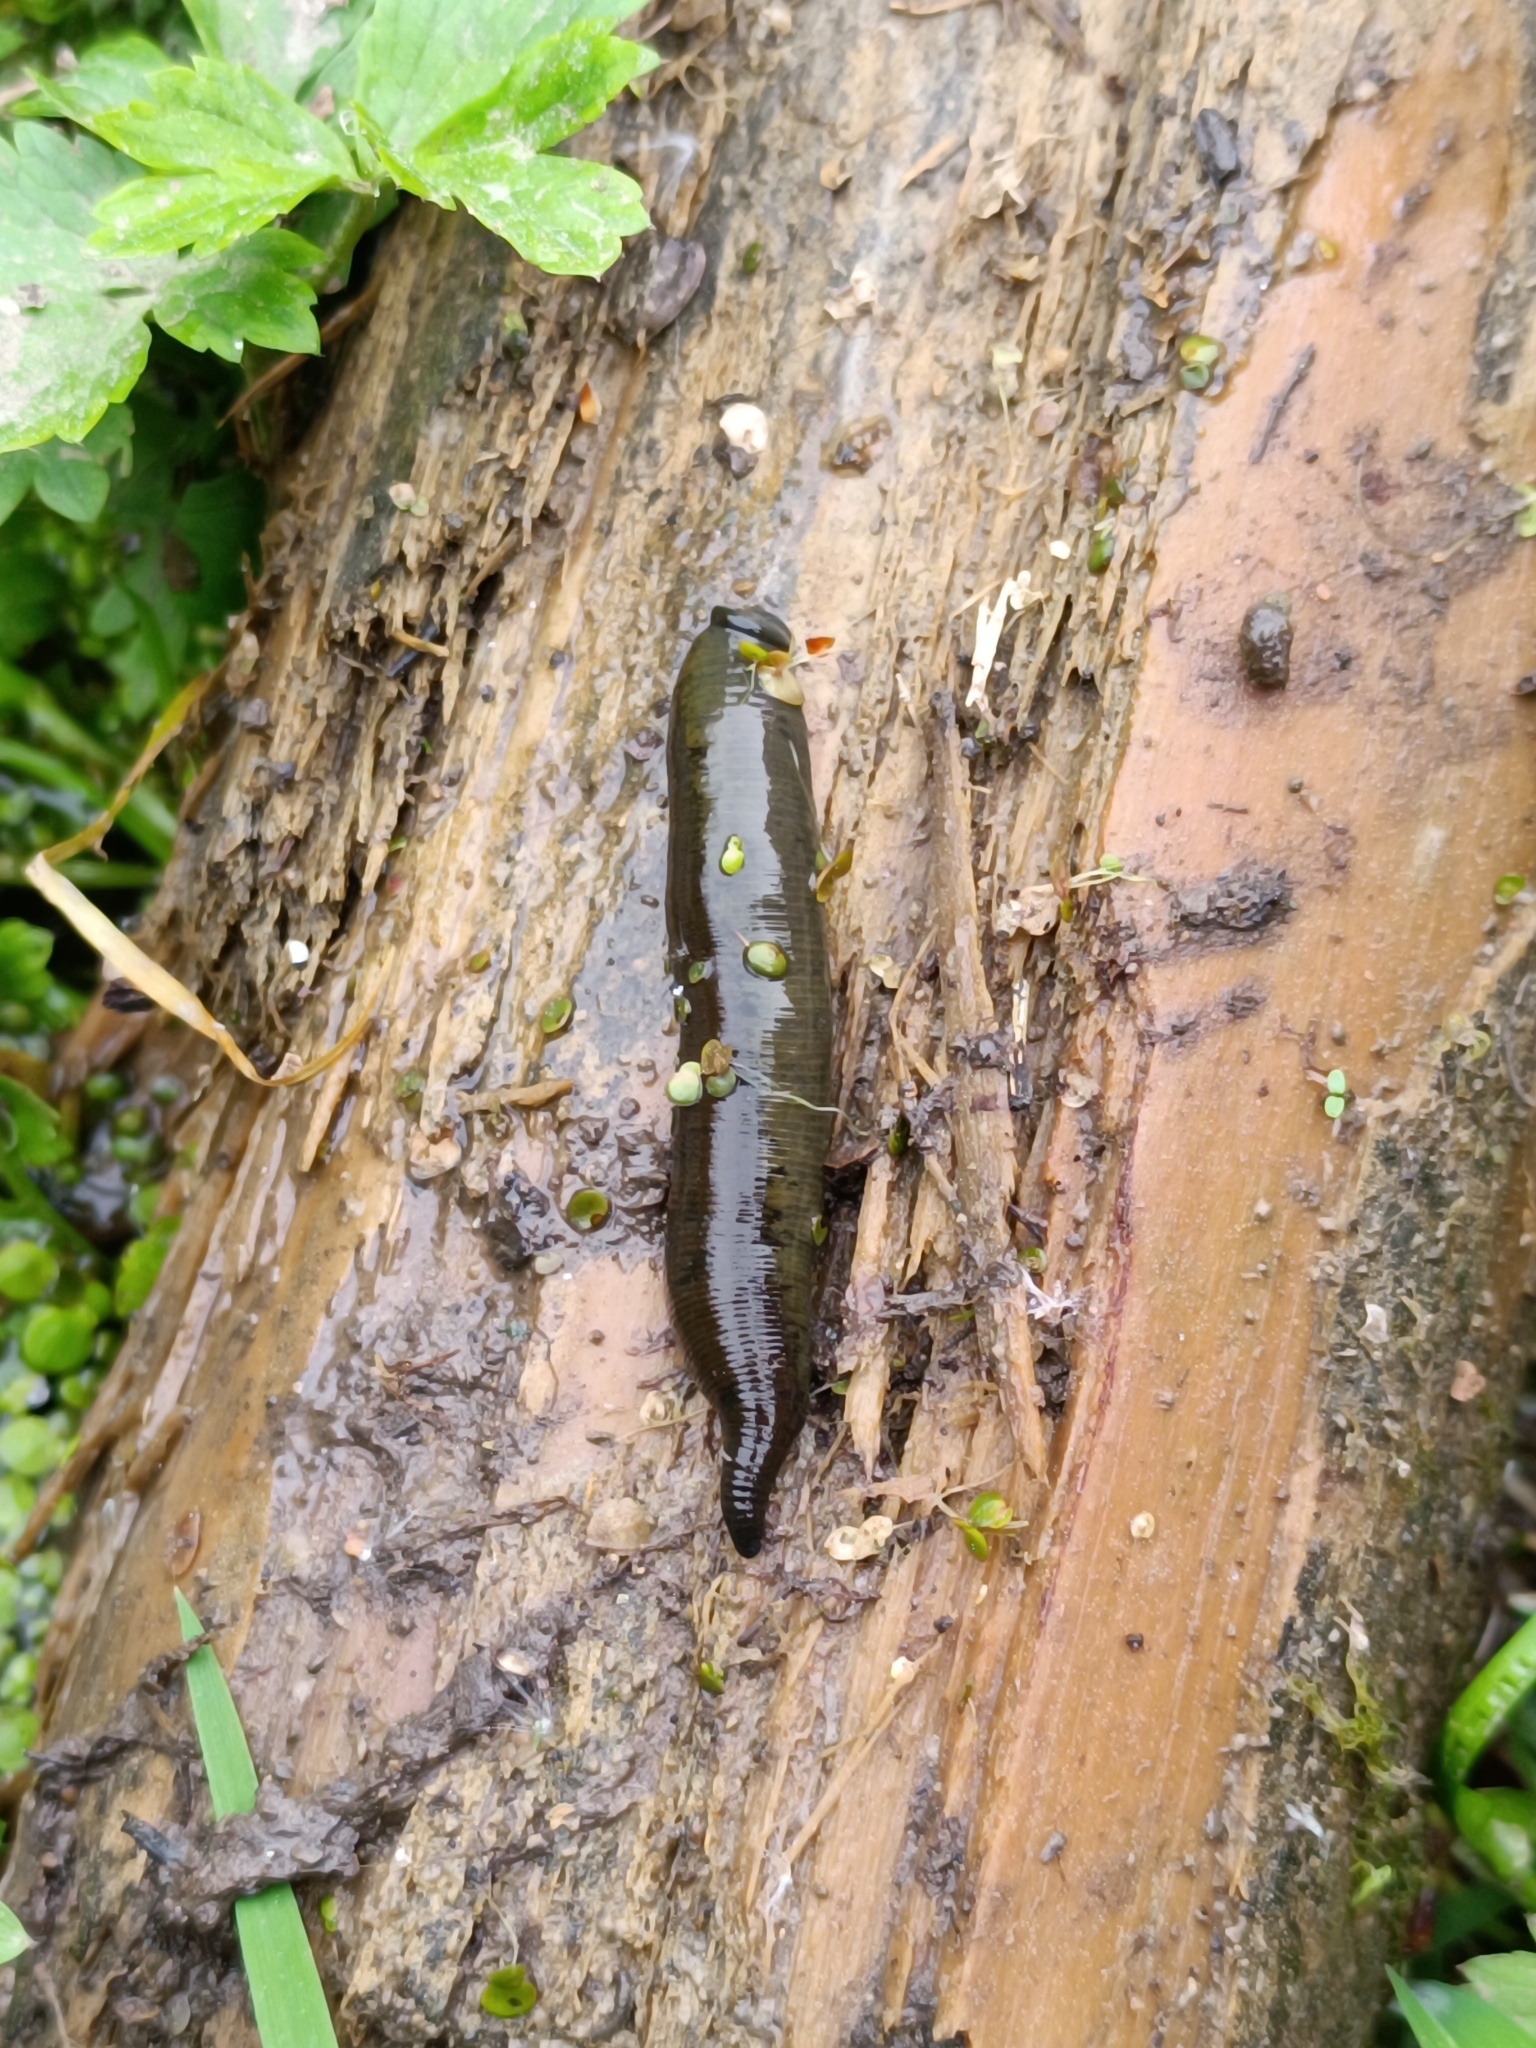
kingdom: Animalia
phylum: Annelida
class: Clitellata
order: Arhynchobdellida
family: Haemopidae
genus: Haemopis
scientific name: Haemopis sanguisuga
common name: Horse leech
